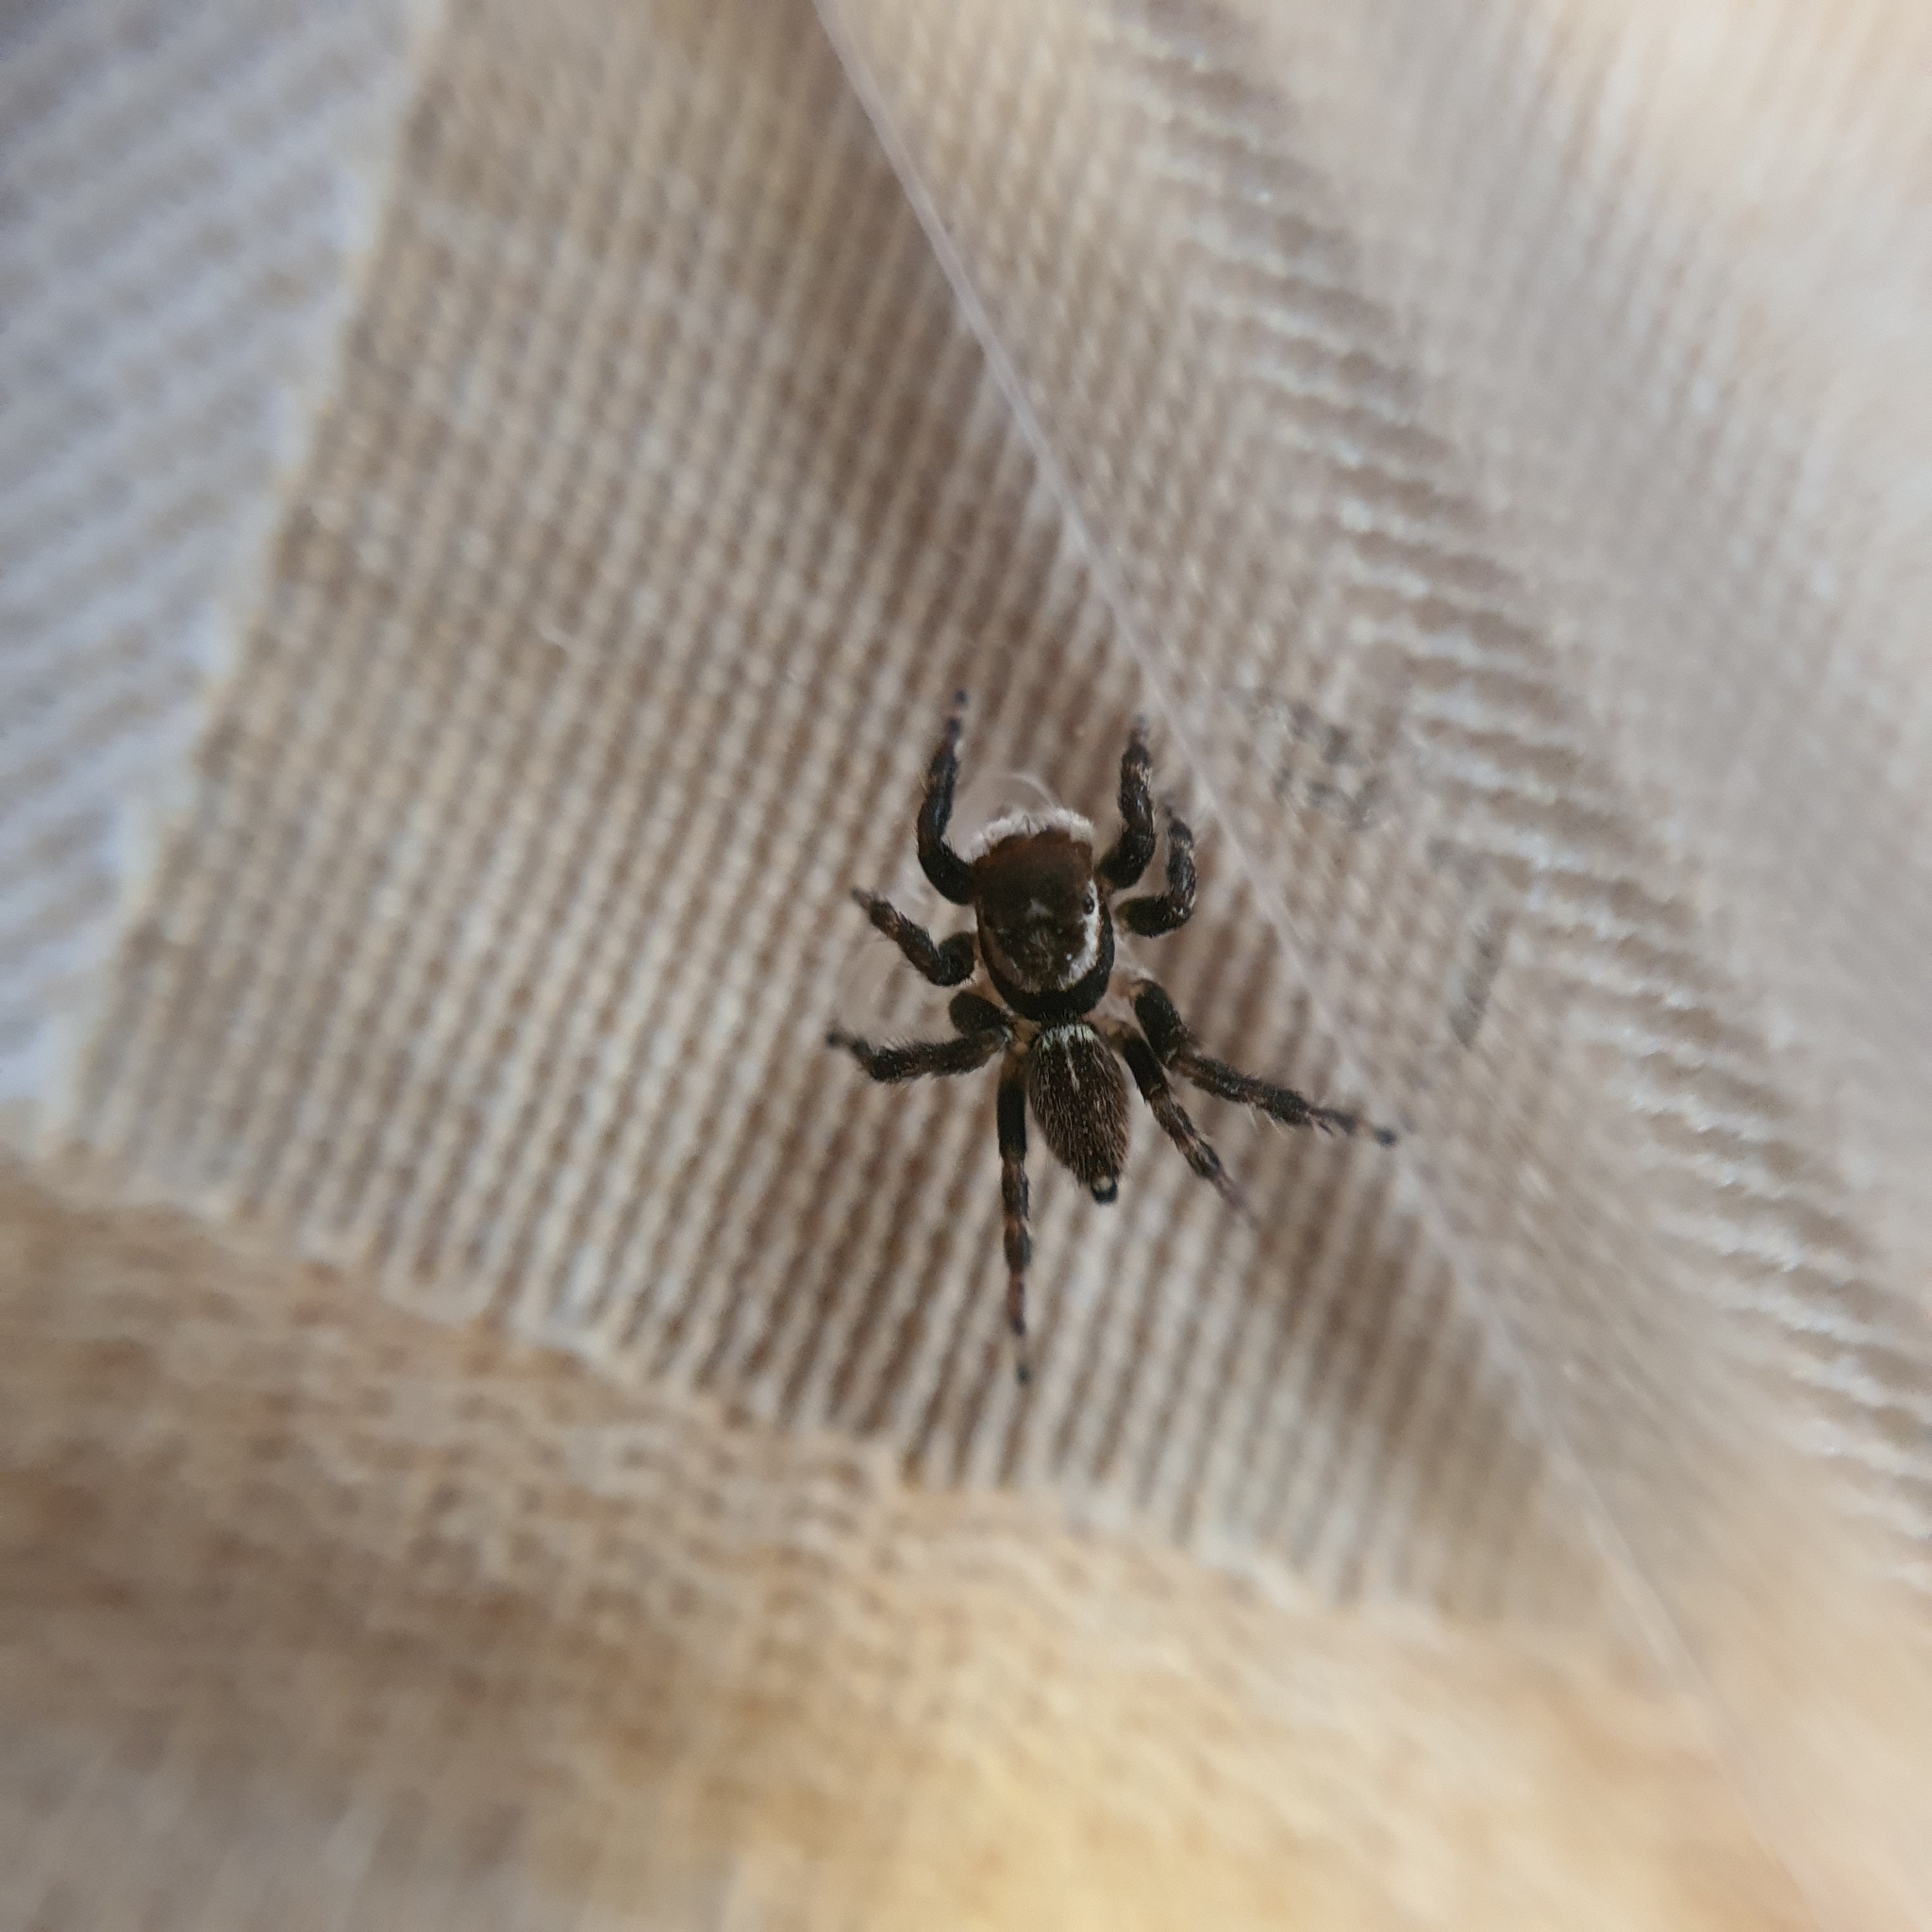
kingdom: Animalia
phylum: Arthropoda
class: Arachnida
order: Araneae
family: Salticidae
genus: Maratus
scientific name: Maratus griseus
